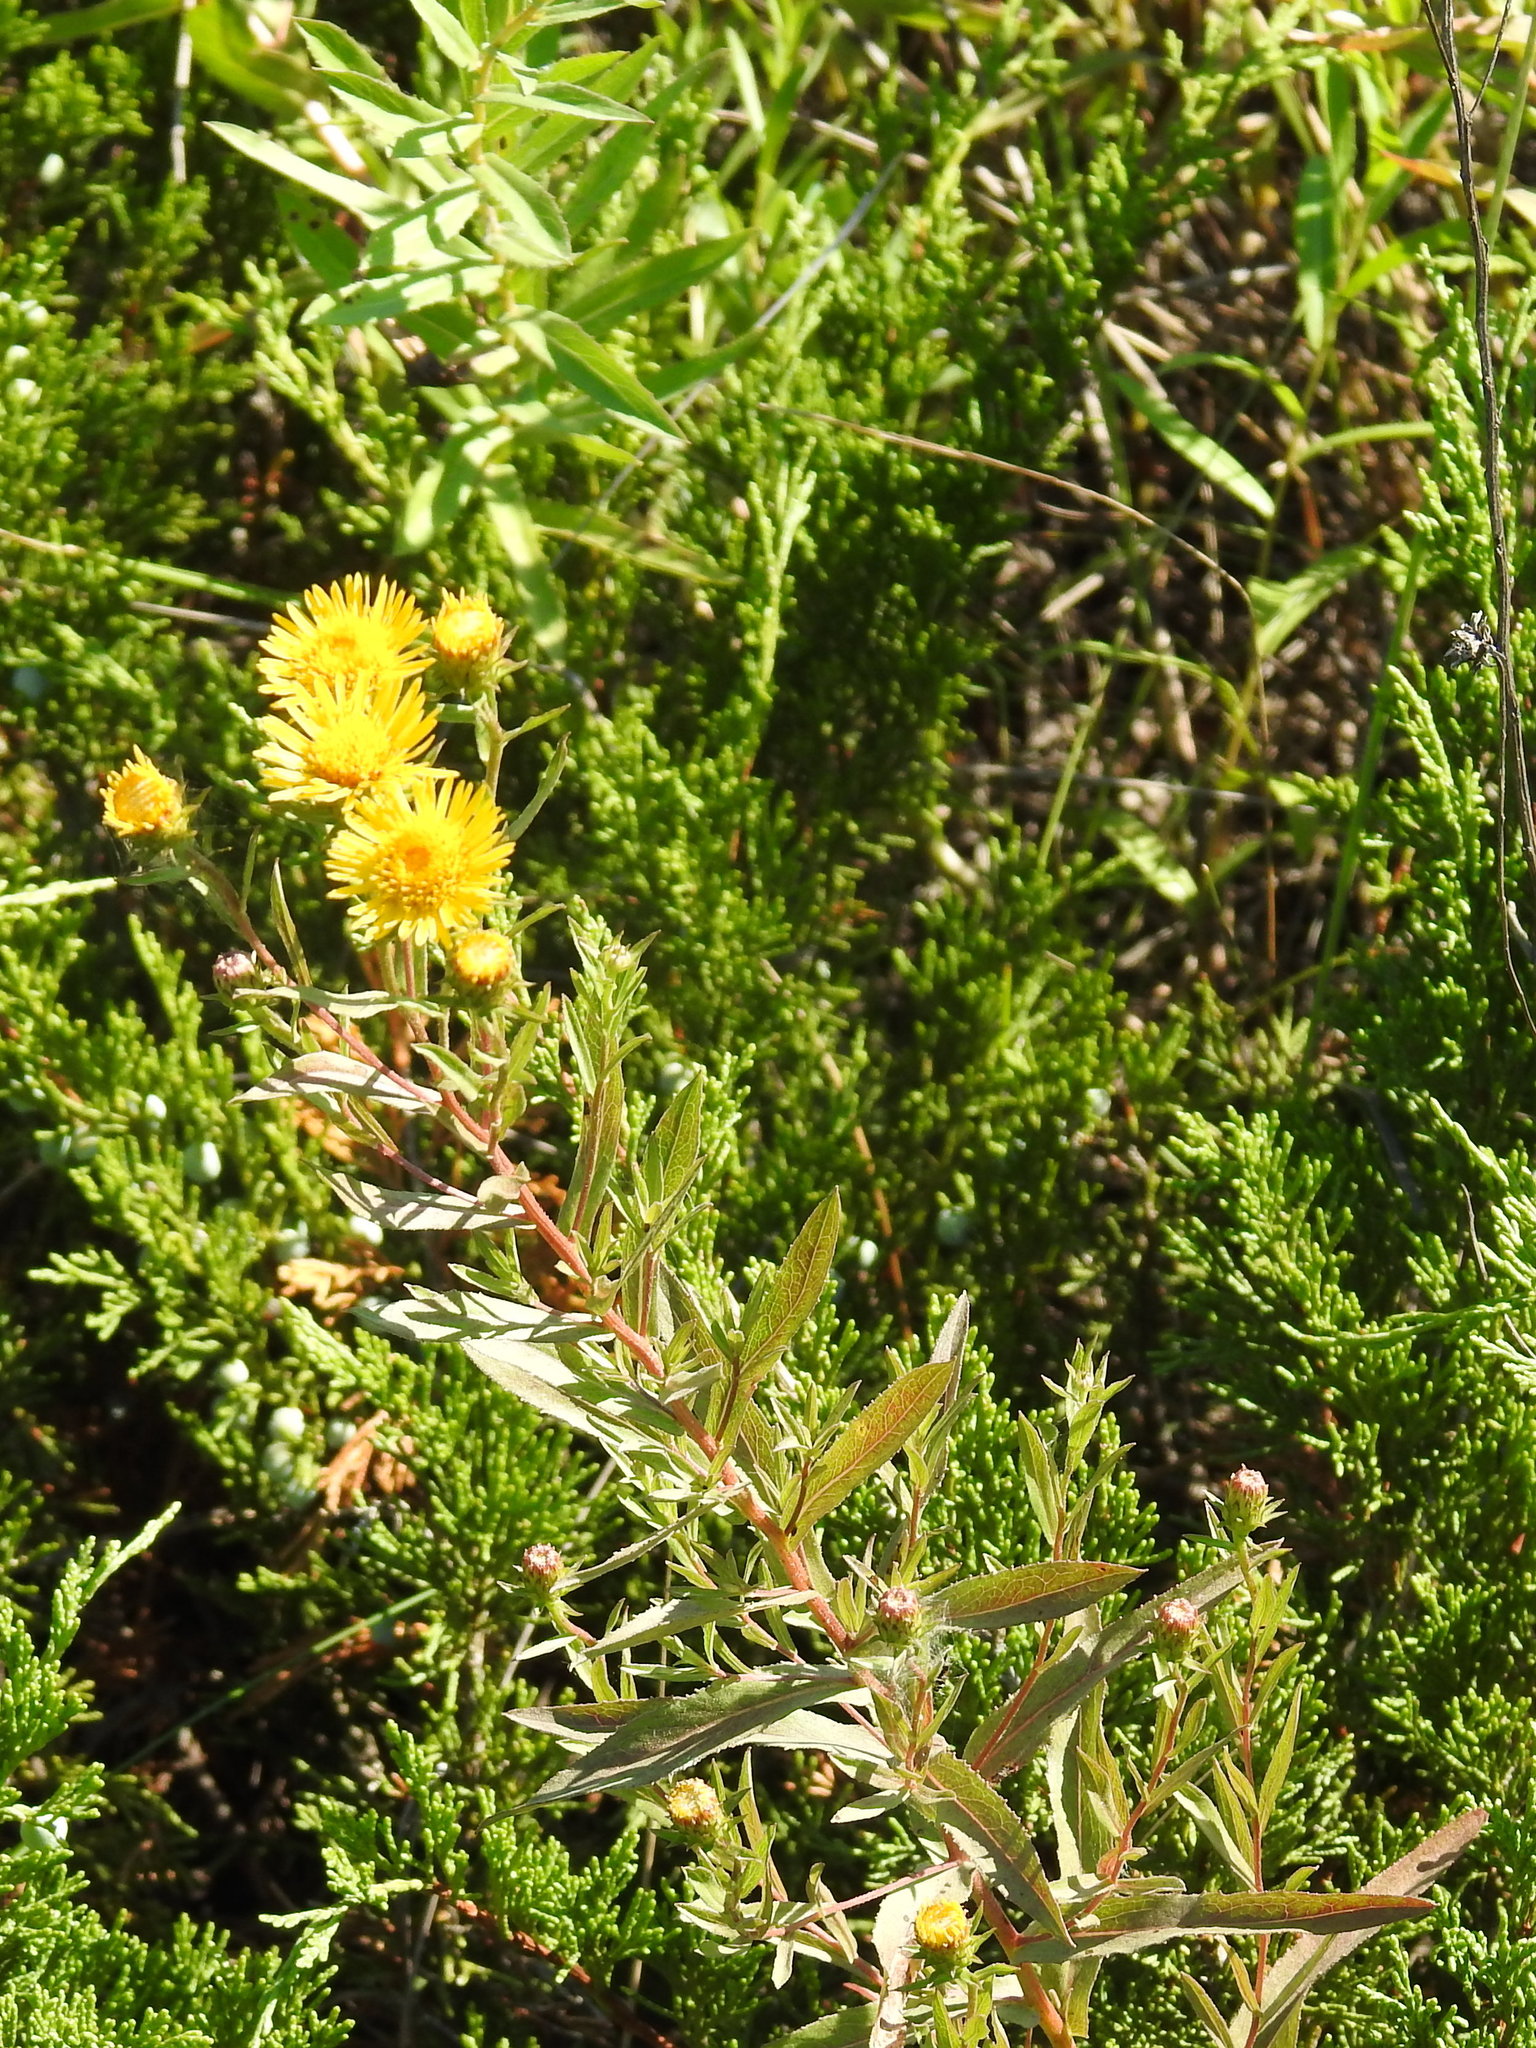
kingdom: Plantae
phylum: Tracheophyta
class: Magnoliopsida
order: Asterales
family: Asteraceae
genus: Pentanema
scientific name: Pentanema salicinum
